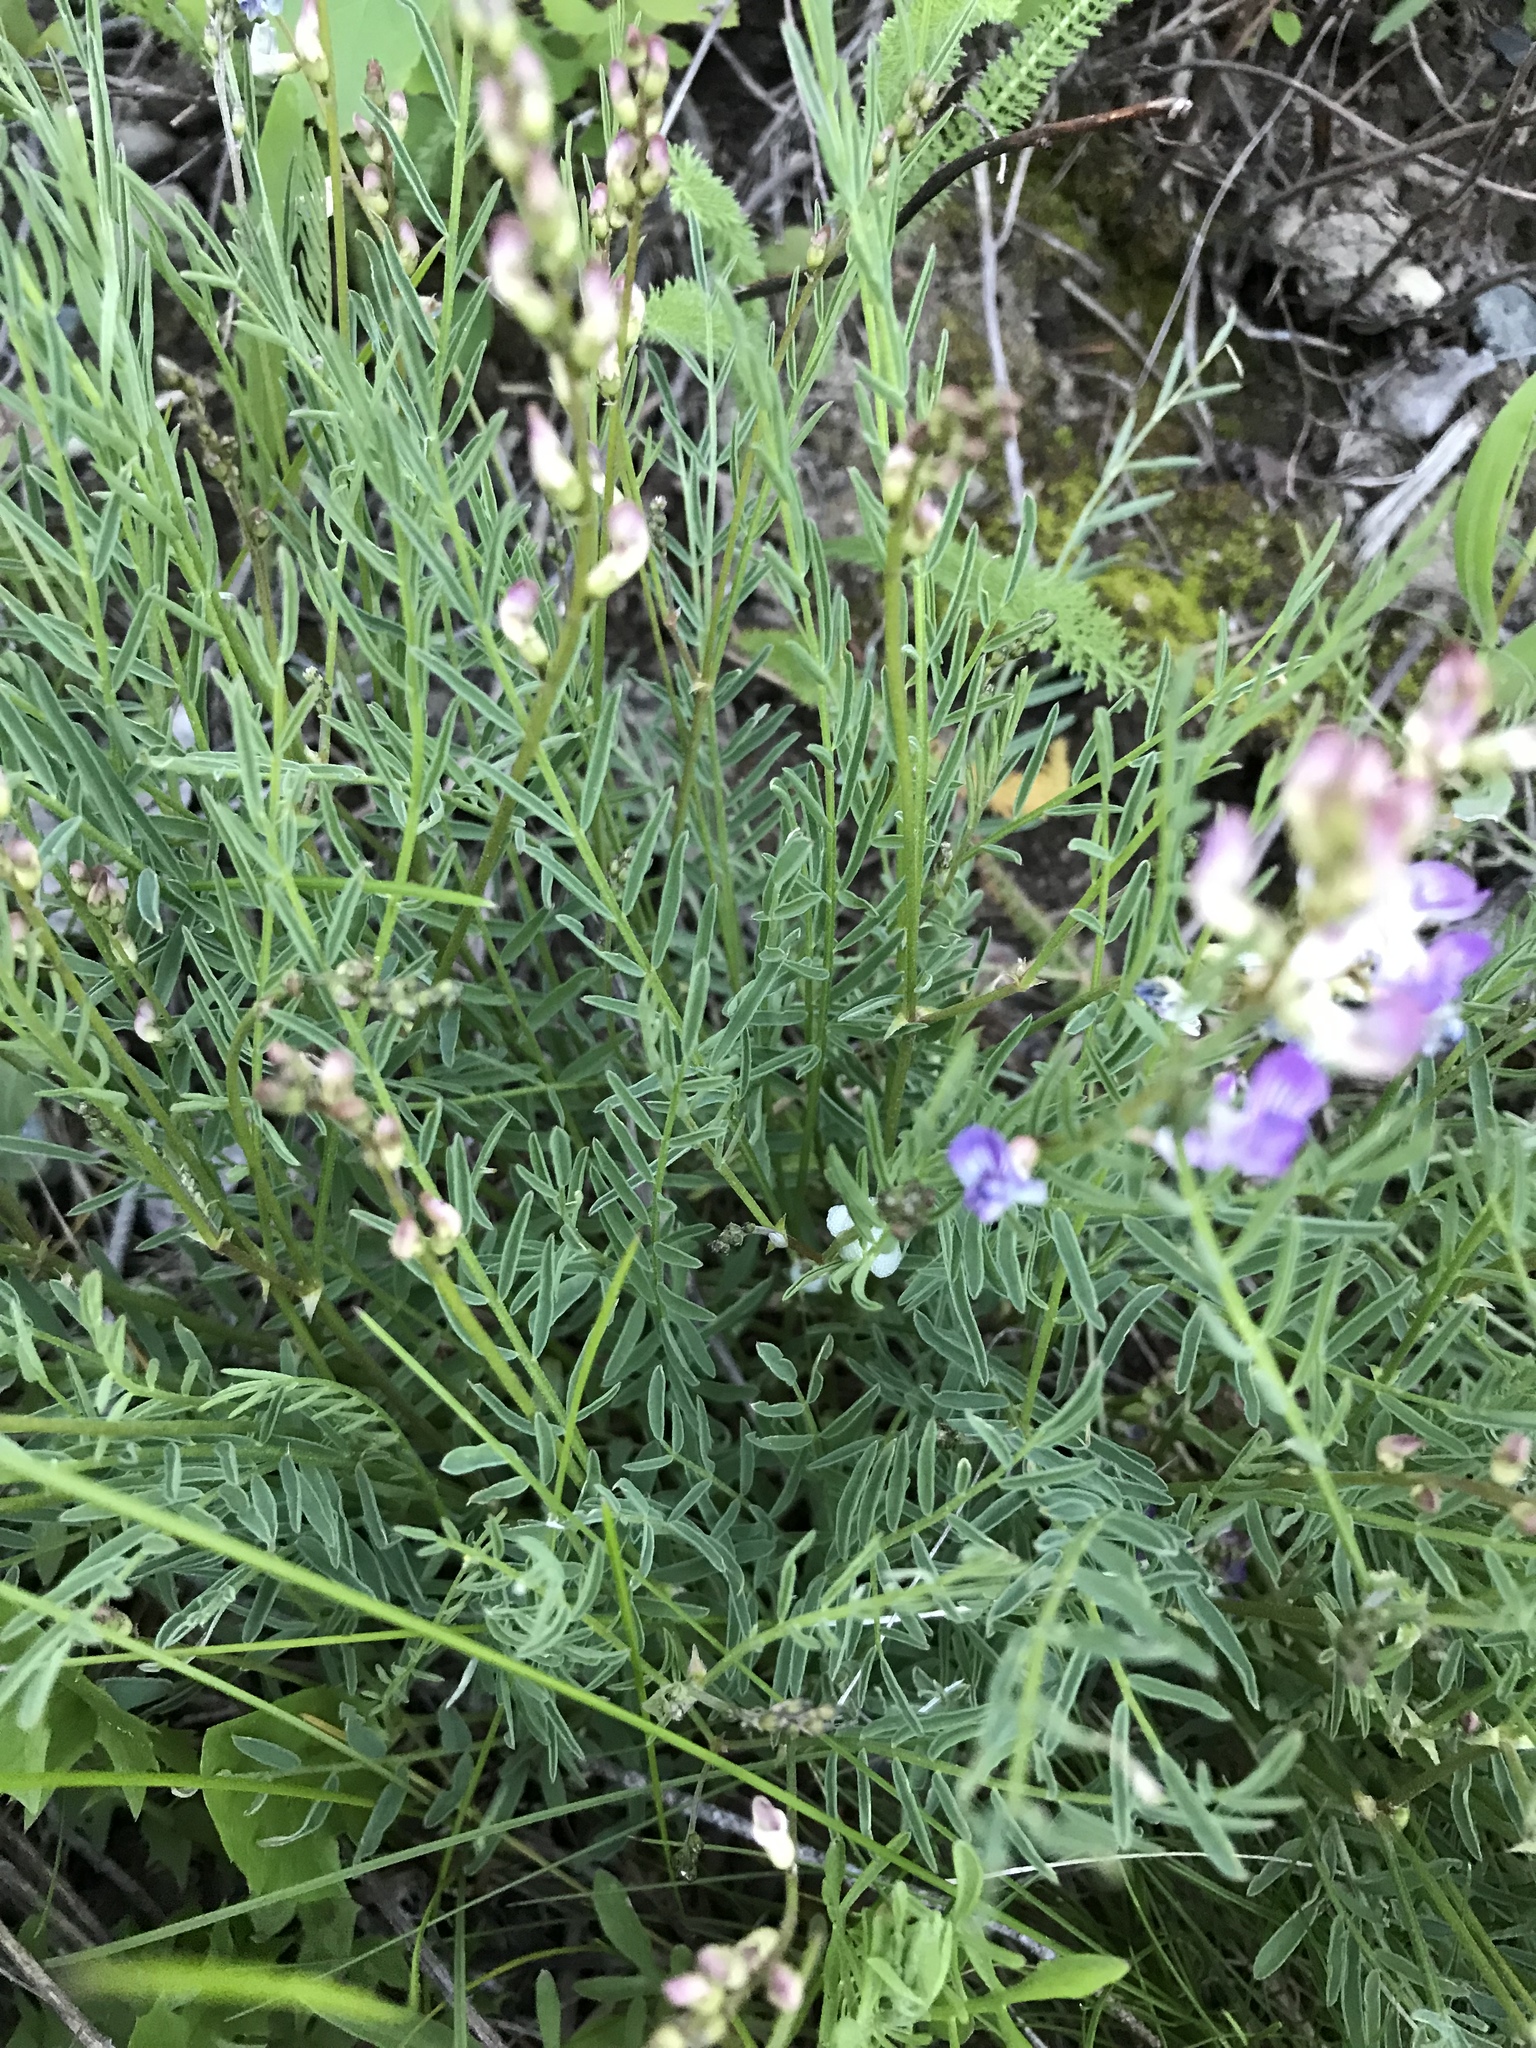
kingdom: Plantae
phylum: Tracheophyta
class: Magnoliopsida
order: Fabales
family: Fabaceae
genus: Astragalus
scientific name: Astragalus miser
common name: Timber milkvetch
